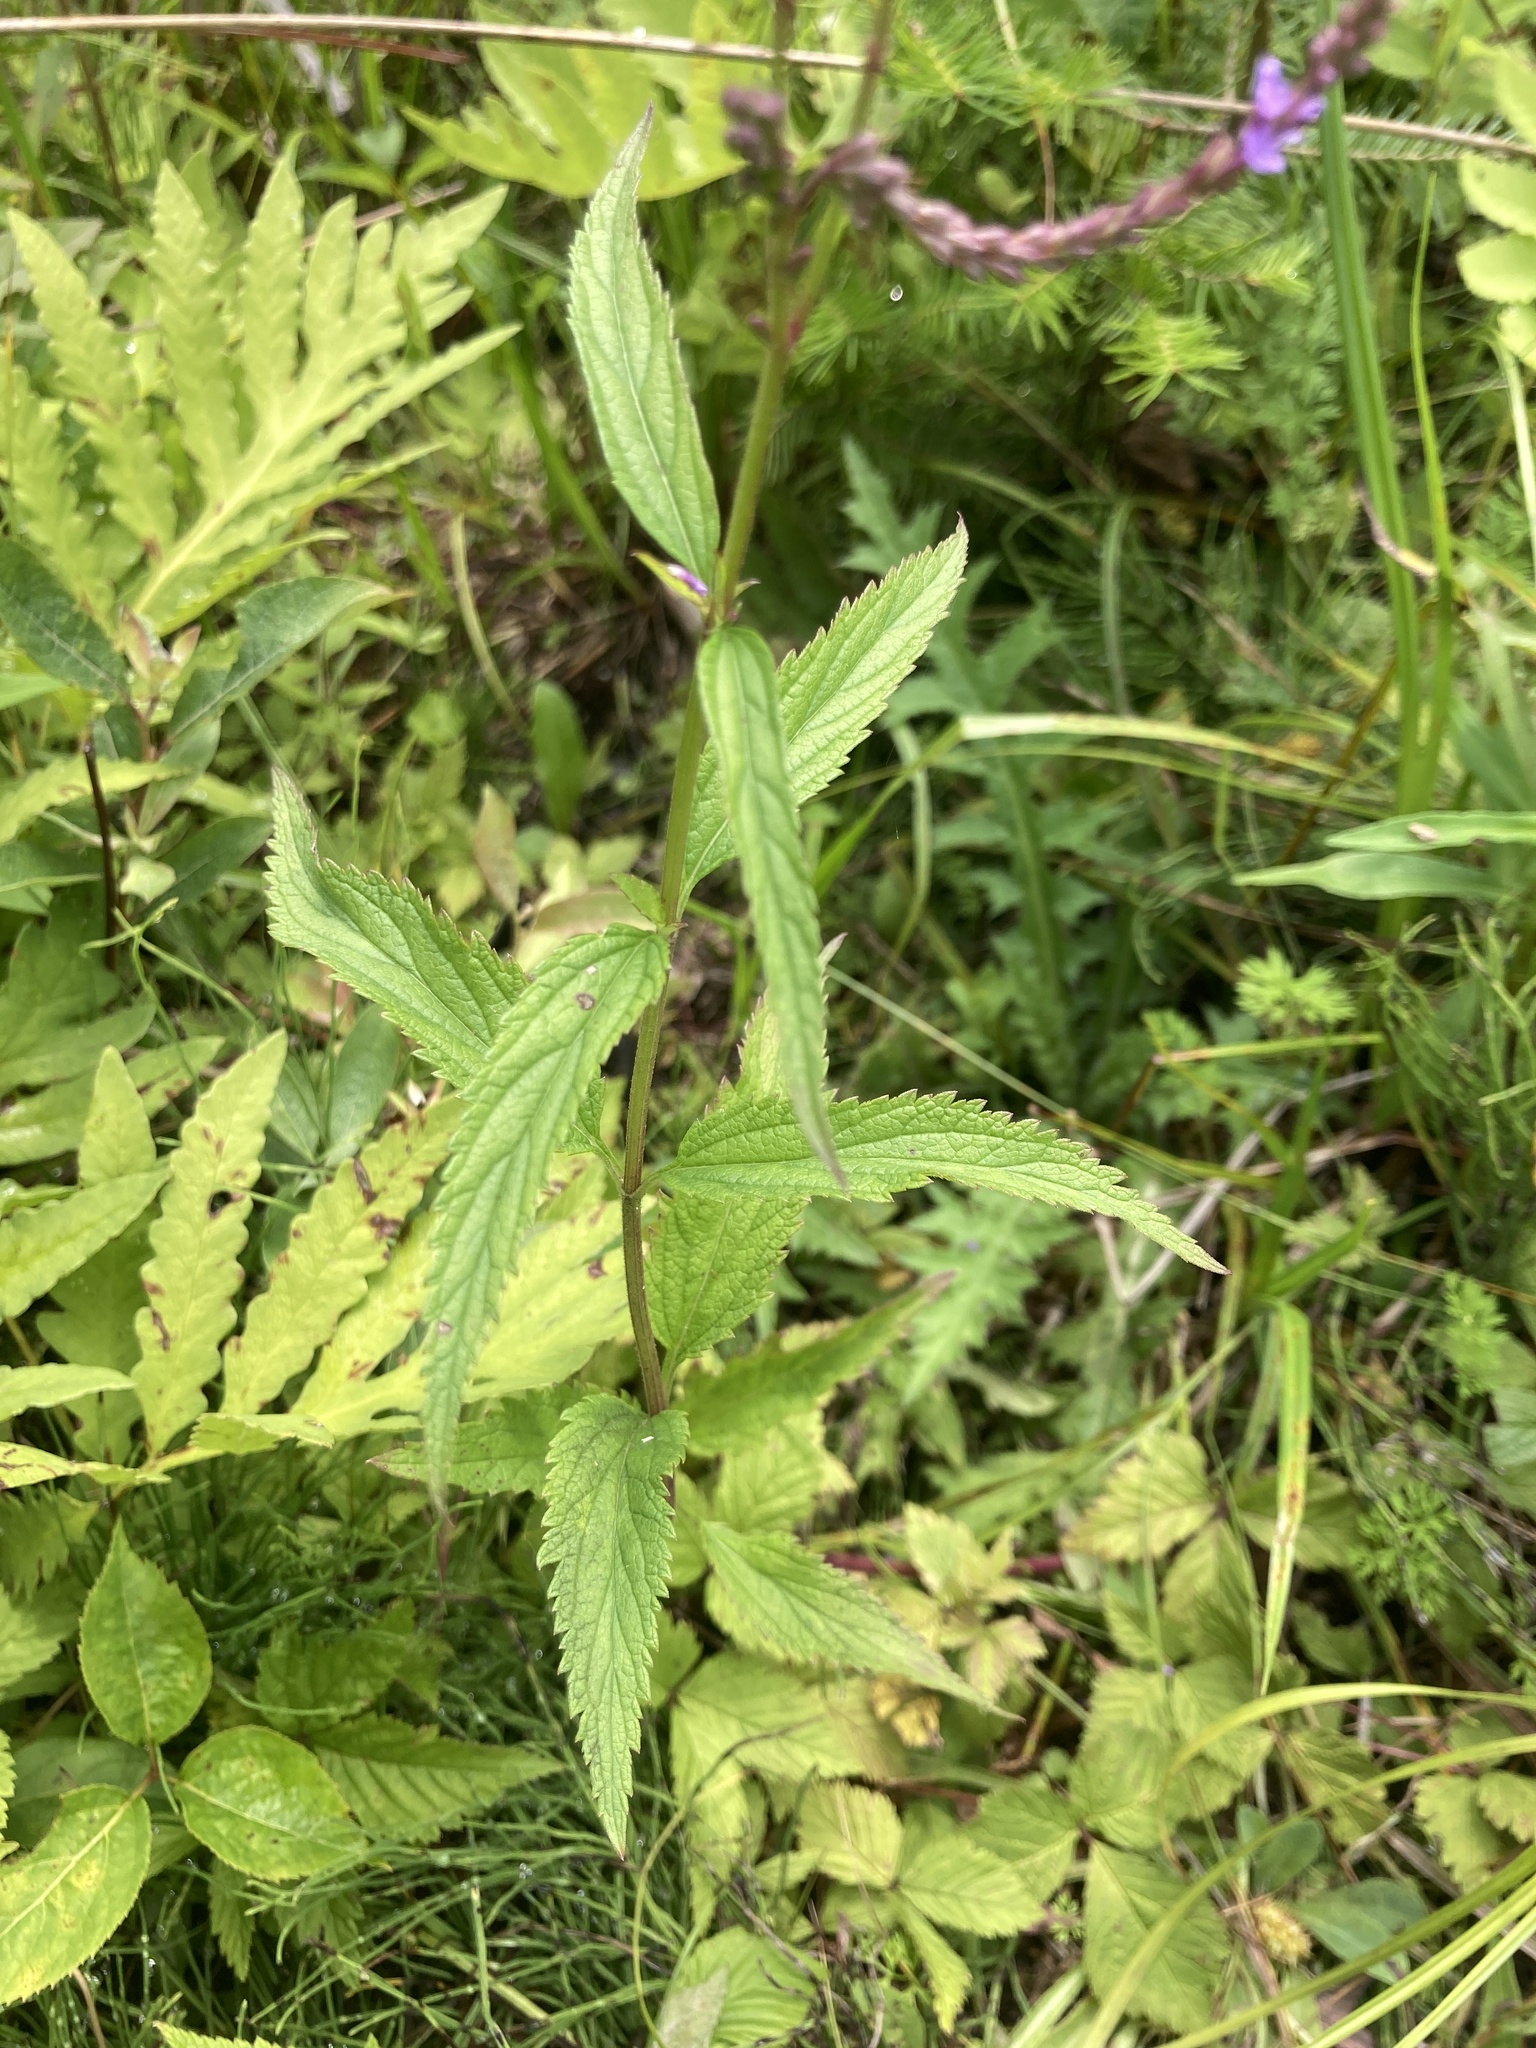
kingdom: Plantae
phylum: Tracheophyta
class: Magnoliopsida
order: Lamiales
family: Verbenaceae
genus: Verbena
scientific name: Verbena hastata
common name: American blue vervain
